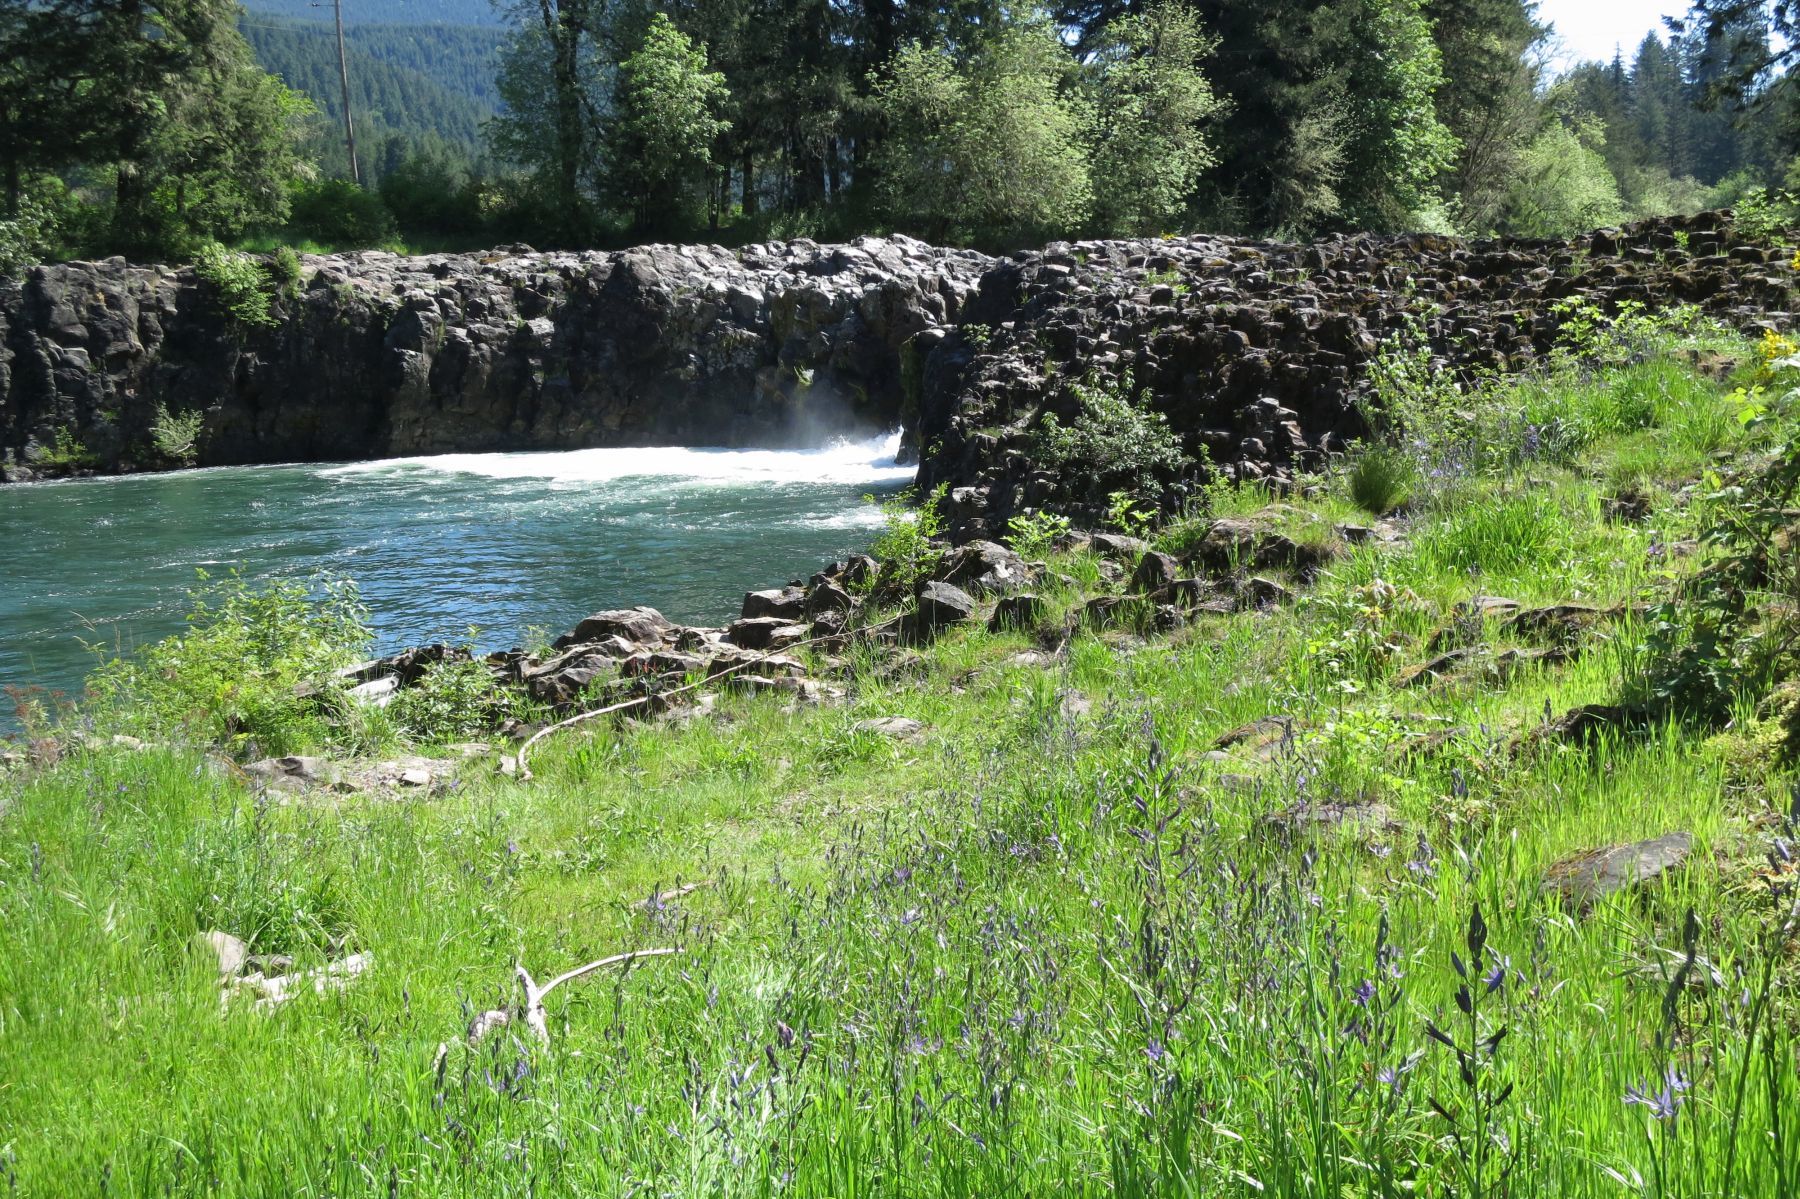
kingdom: Plantae
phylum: Tracheophyta
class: Liliopsida
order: Asparagales
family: Asparagaceae
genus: Camassia
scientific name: Camassia leichtlinii
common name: Leichtlin's camas
